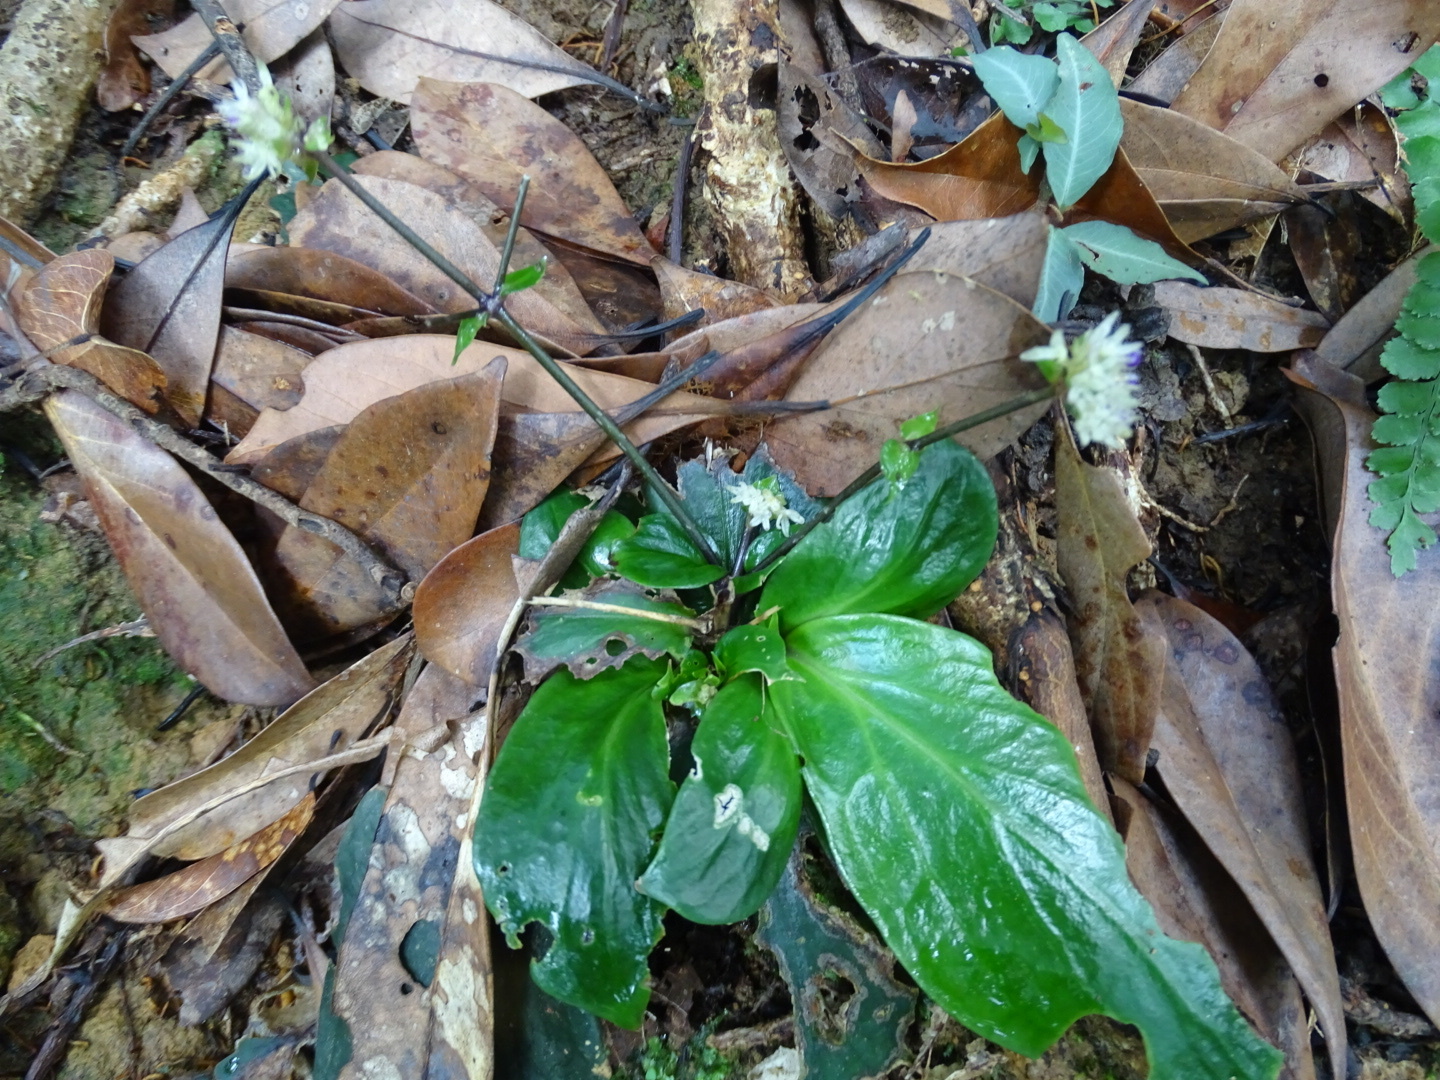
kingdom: Plantae
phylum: Tracheophyta
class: Magnoliopsida
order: Gentianales
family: Rubiaceae
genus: Hedyotis
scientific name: Hedyotis shiuyingiae
